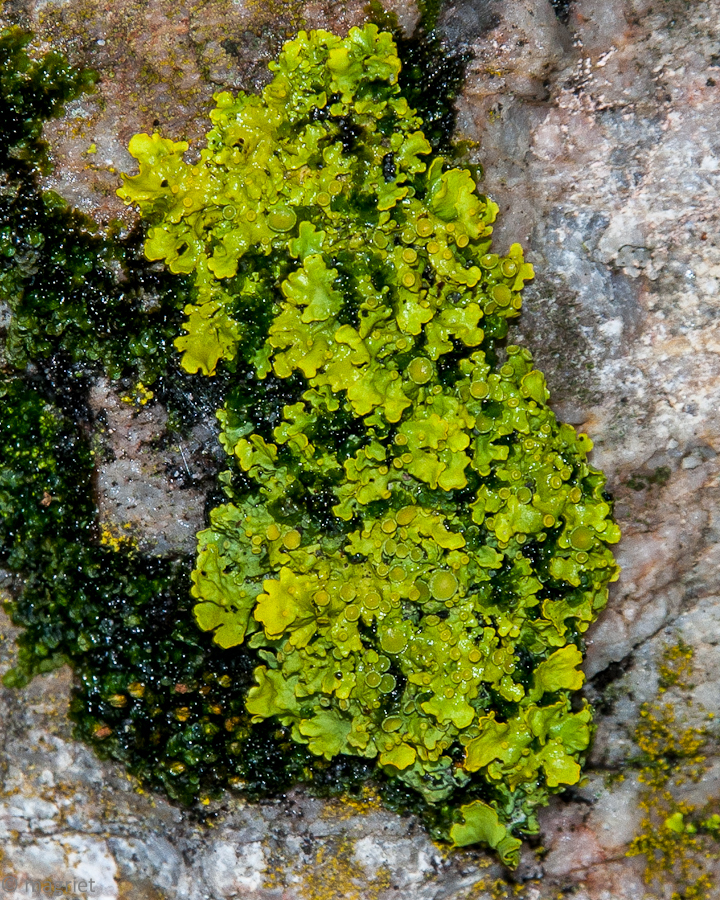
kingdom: Fungi
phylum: Ascomycota
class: Lecanoromycetes
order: Teloschistales
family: Teloschistaceae
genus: Xanthoria
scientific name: Xanthoria parietina
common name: Common orange lichen
